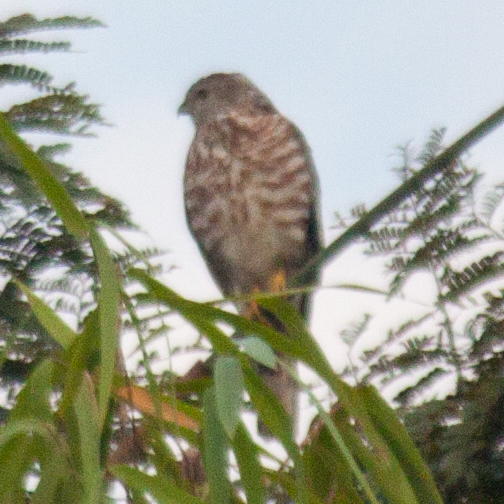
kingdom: Animalia
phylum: Chordata
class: Aves
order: Accipitriformes
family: Accipitridae
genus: Accipiter
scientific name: Accipiter badius
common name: Shikra
